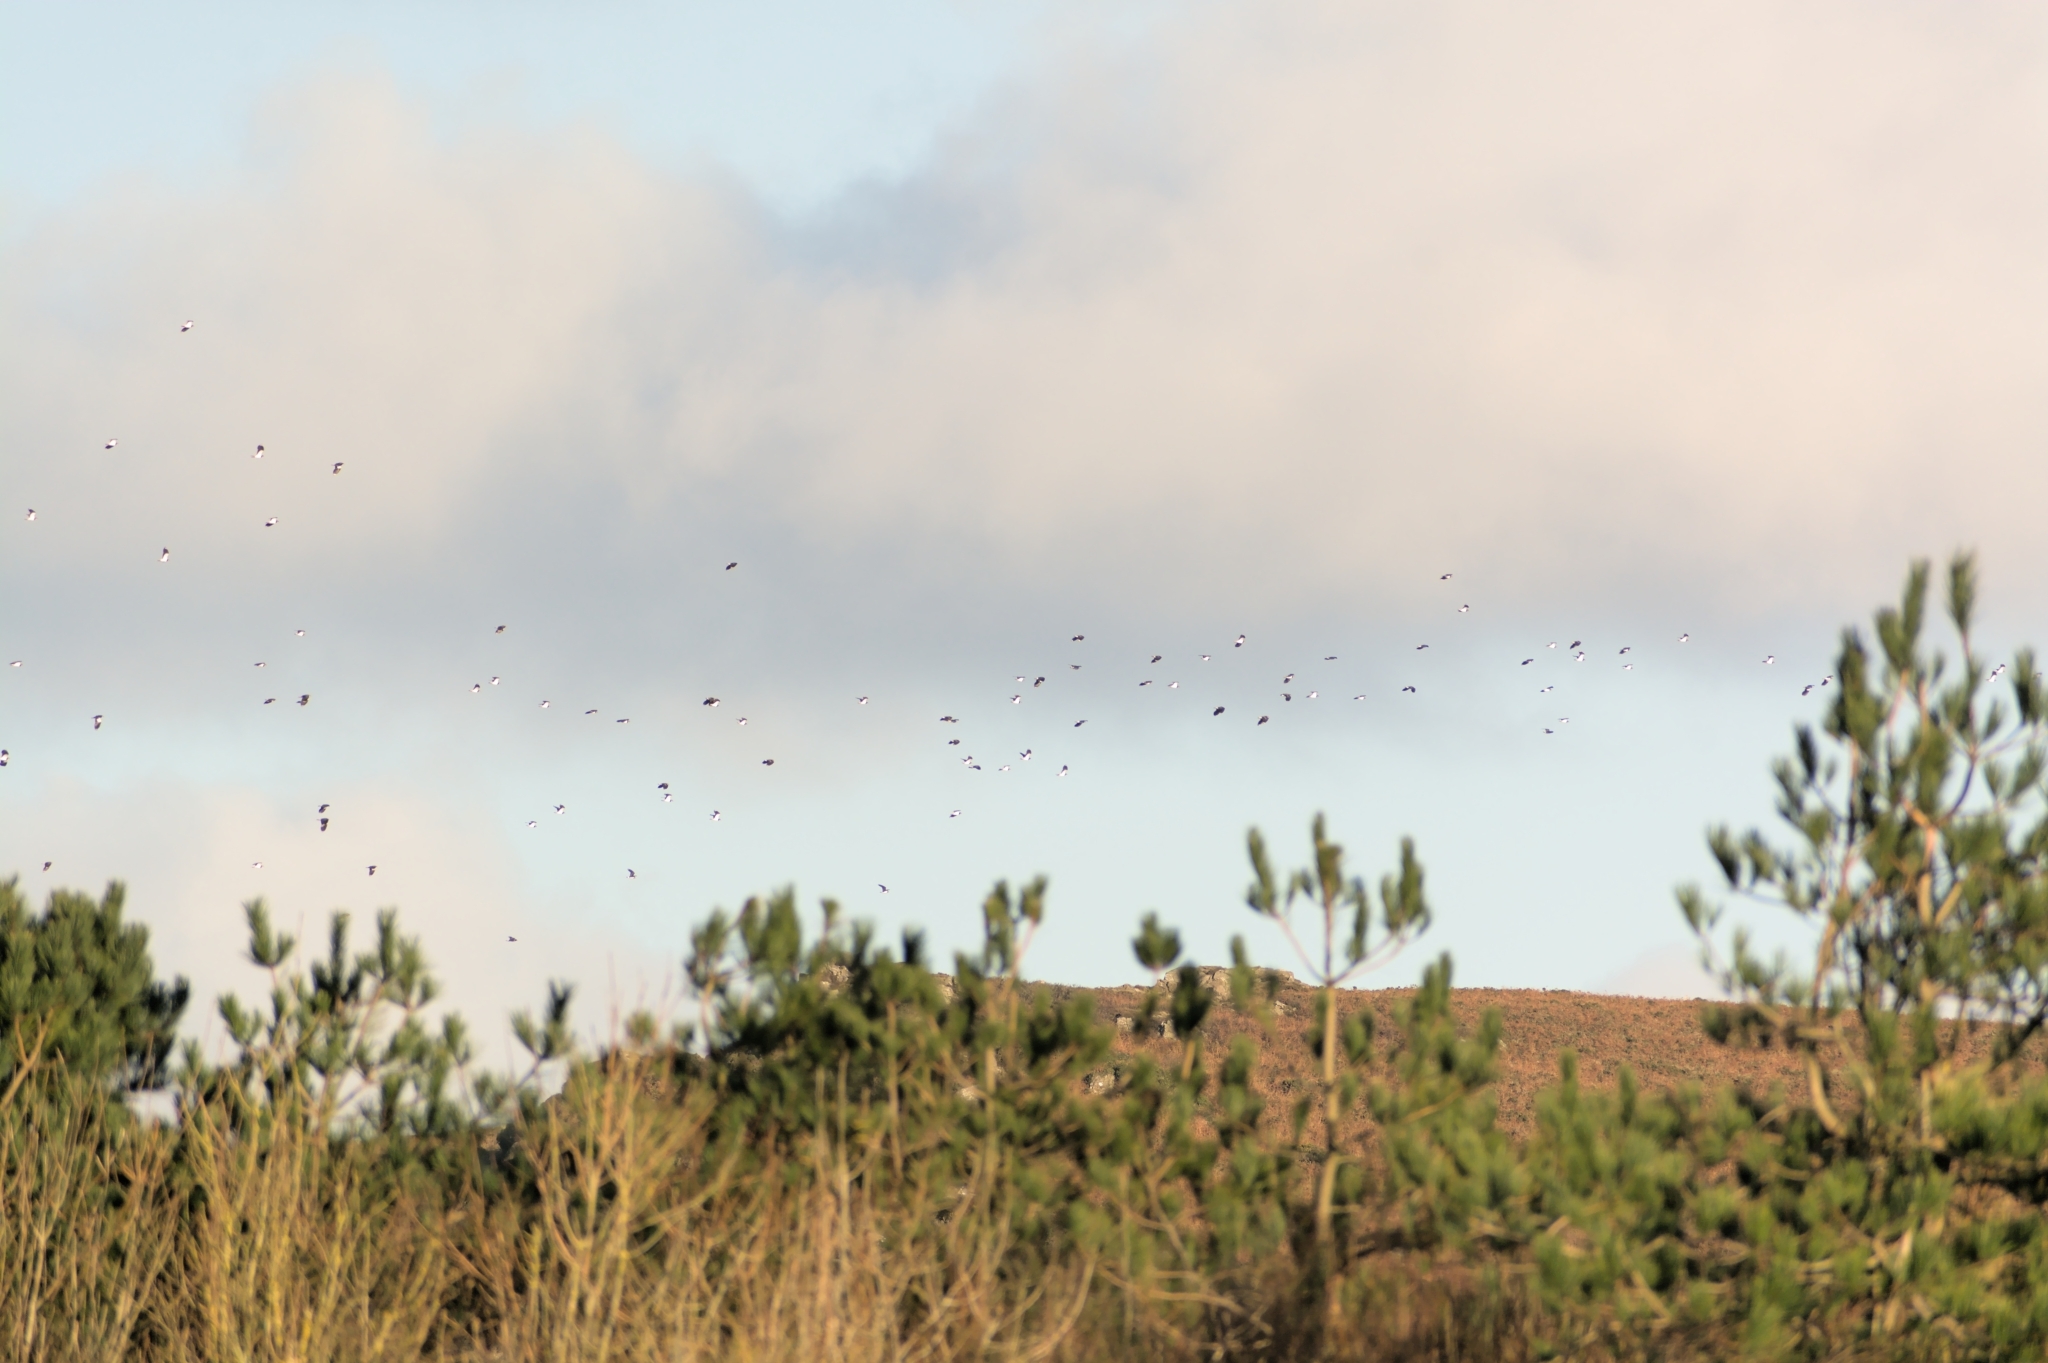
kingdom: Animalia
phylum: Chordata
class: Aves
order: Charadriiformes
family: Charadriidae
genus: Vanellus
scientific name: Vanellus vanellus
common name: Northern lapwing
